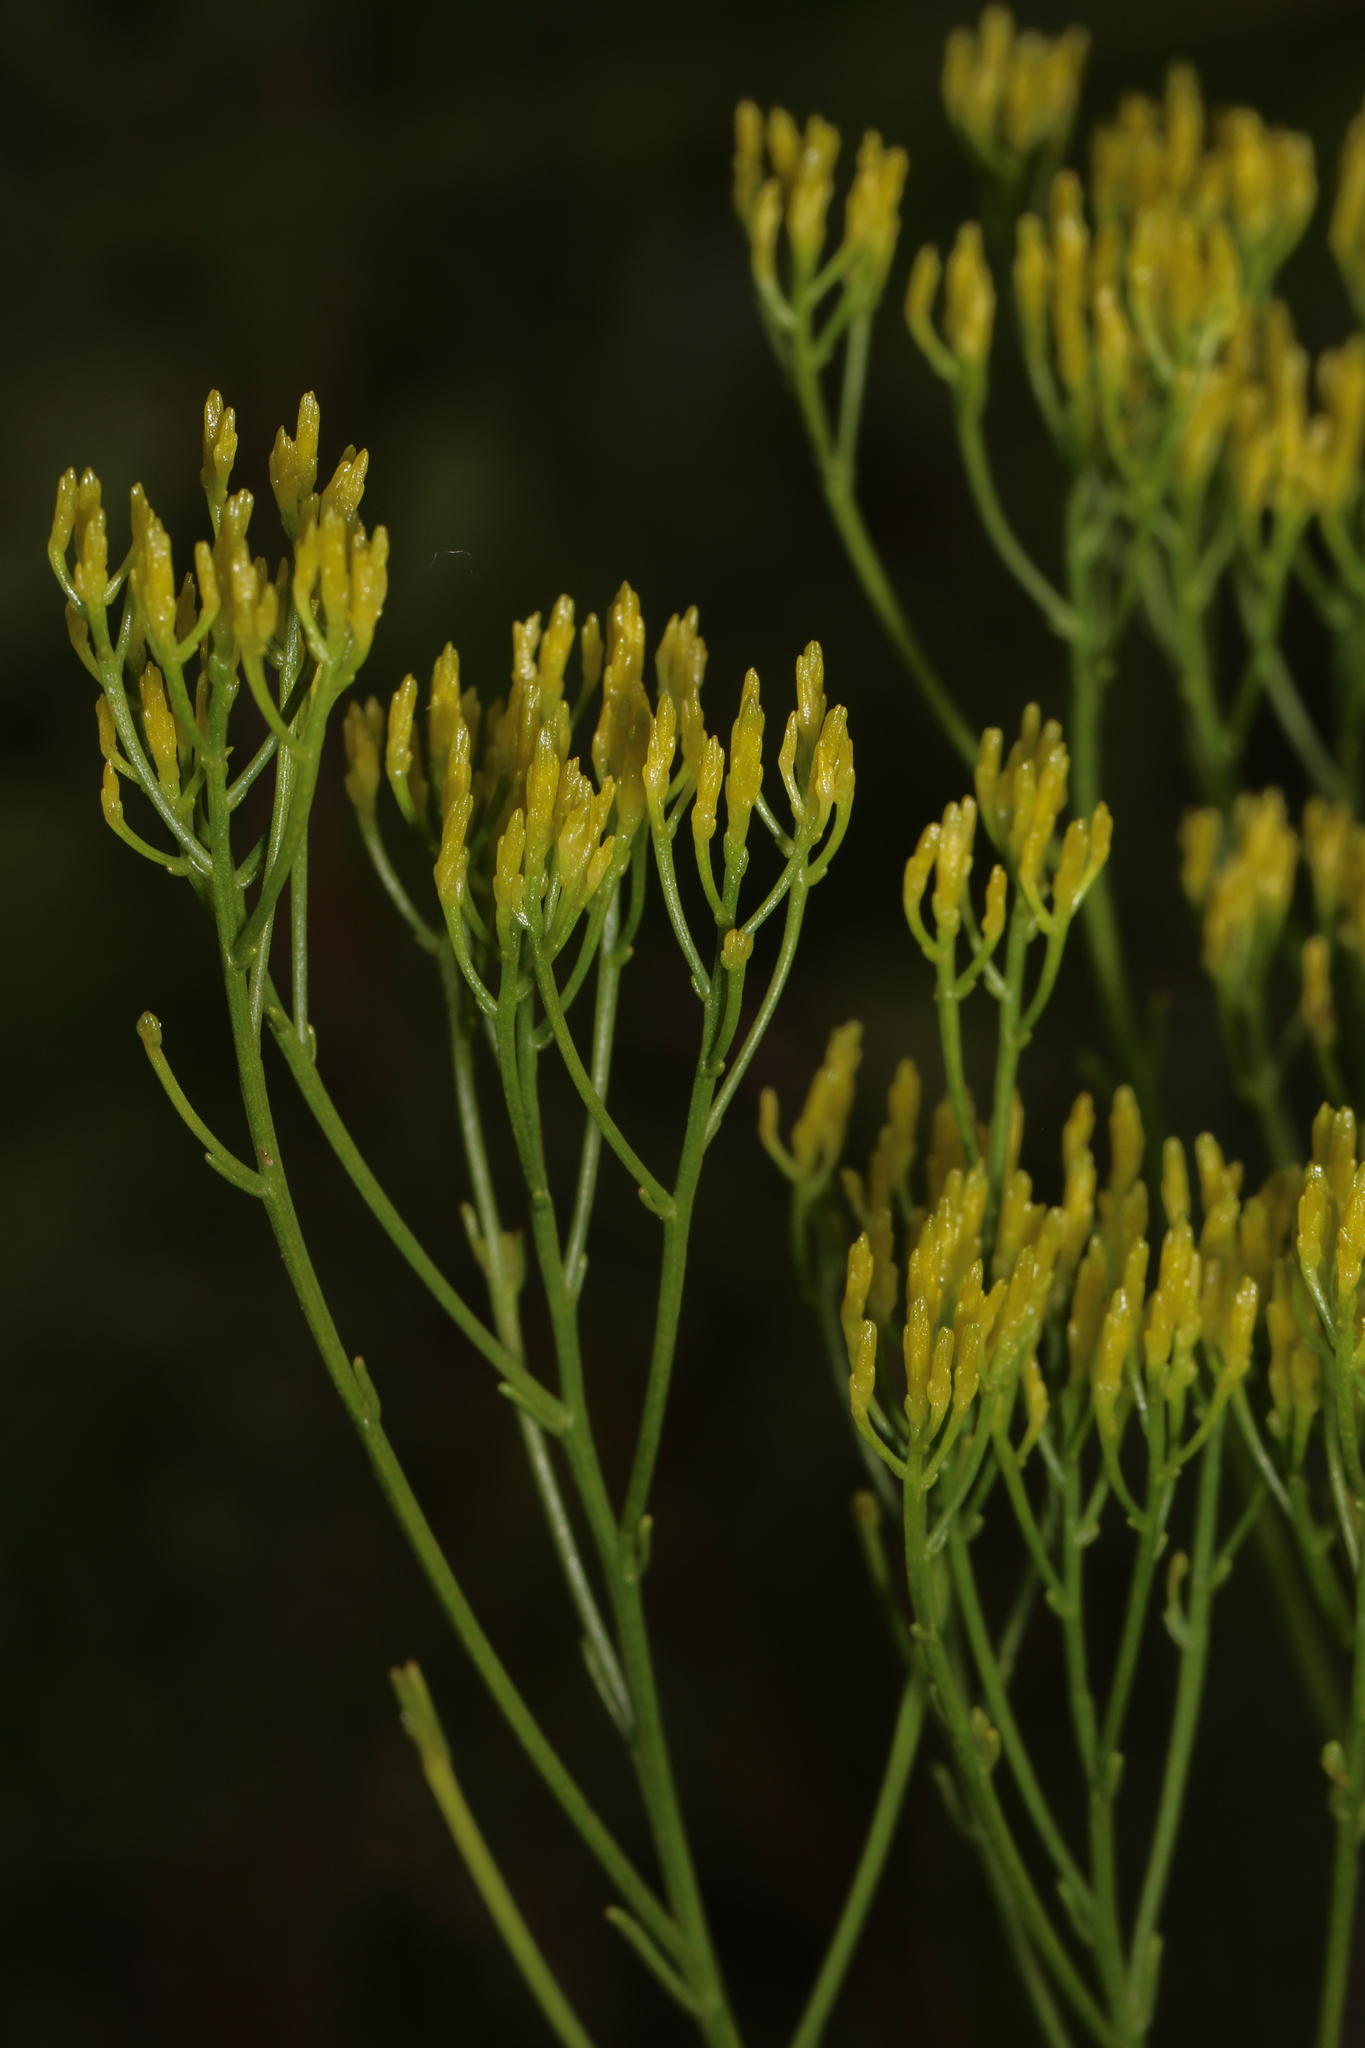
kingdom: Plantae
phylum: Tracheophyta
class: Magnoliopsida
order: Asterales
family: Asteraceae
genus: Bigelowia
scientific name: Bigelowia nudata
